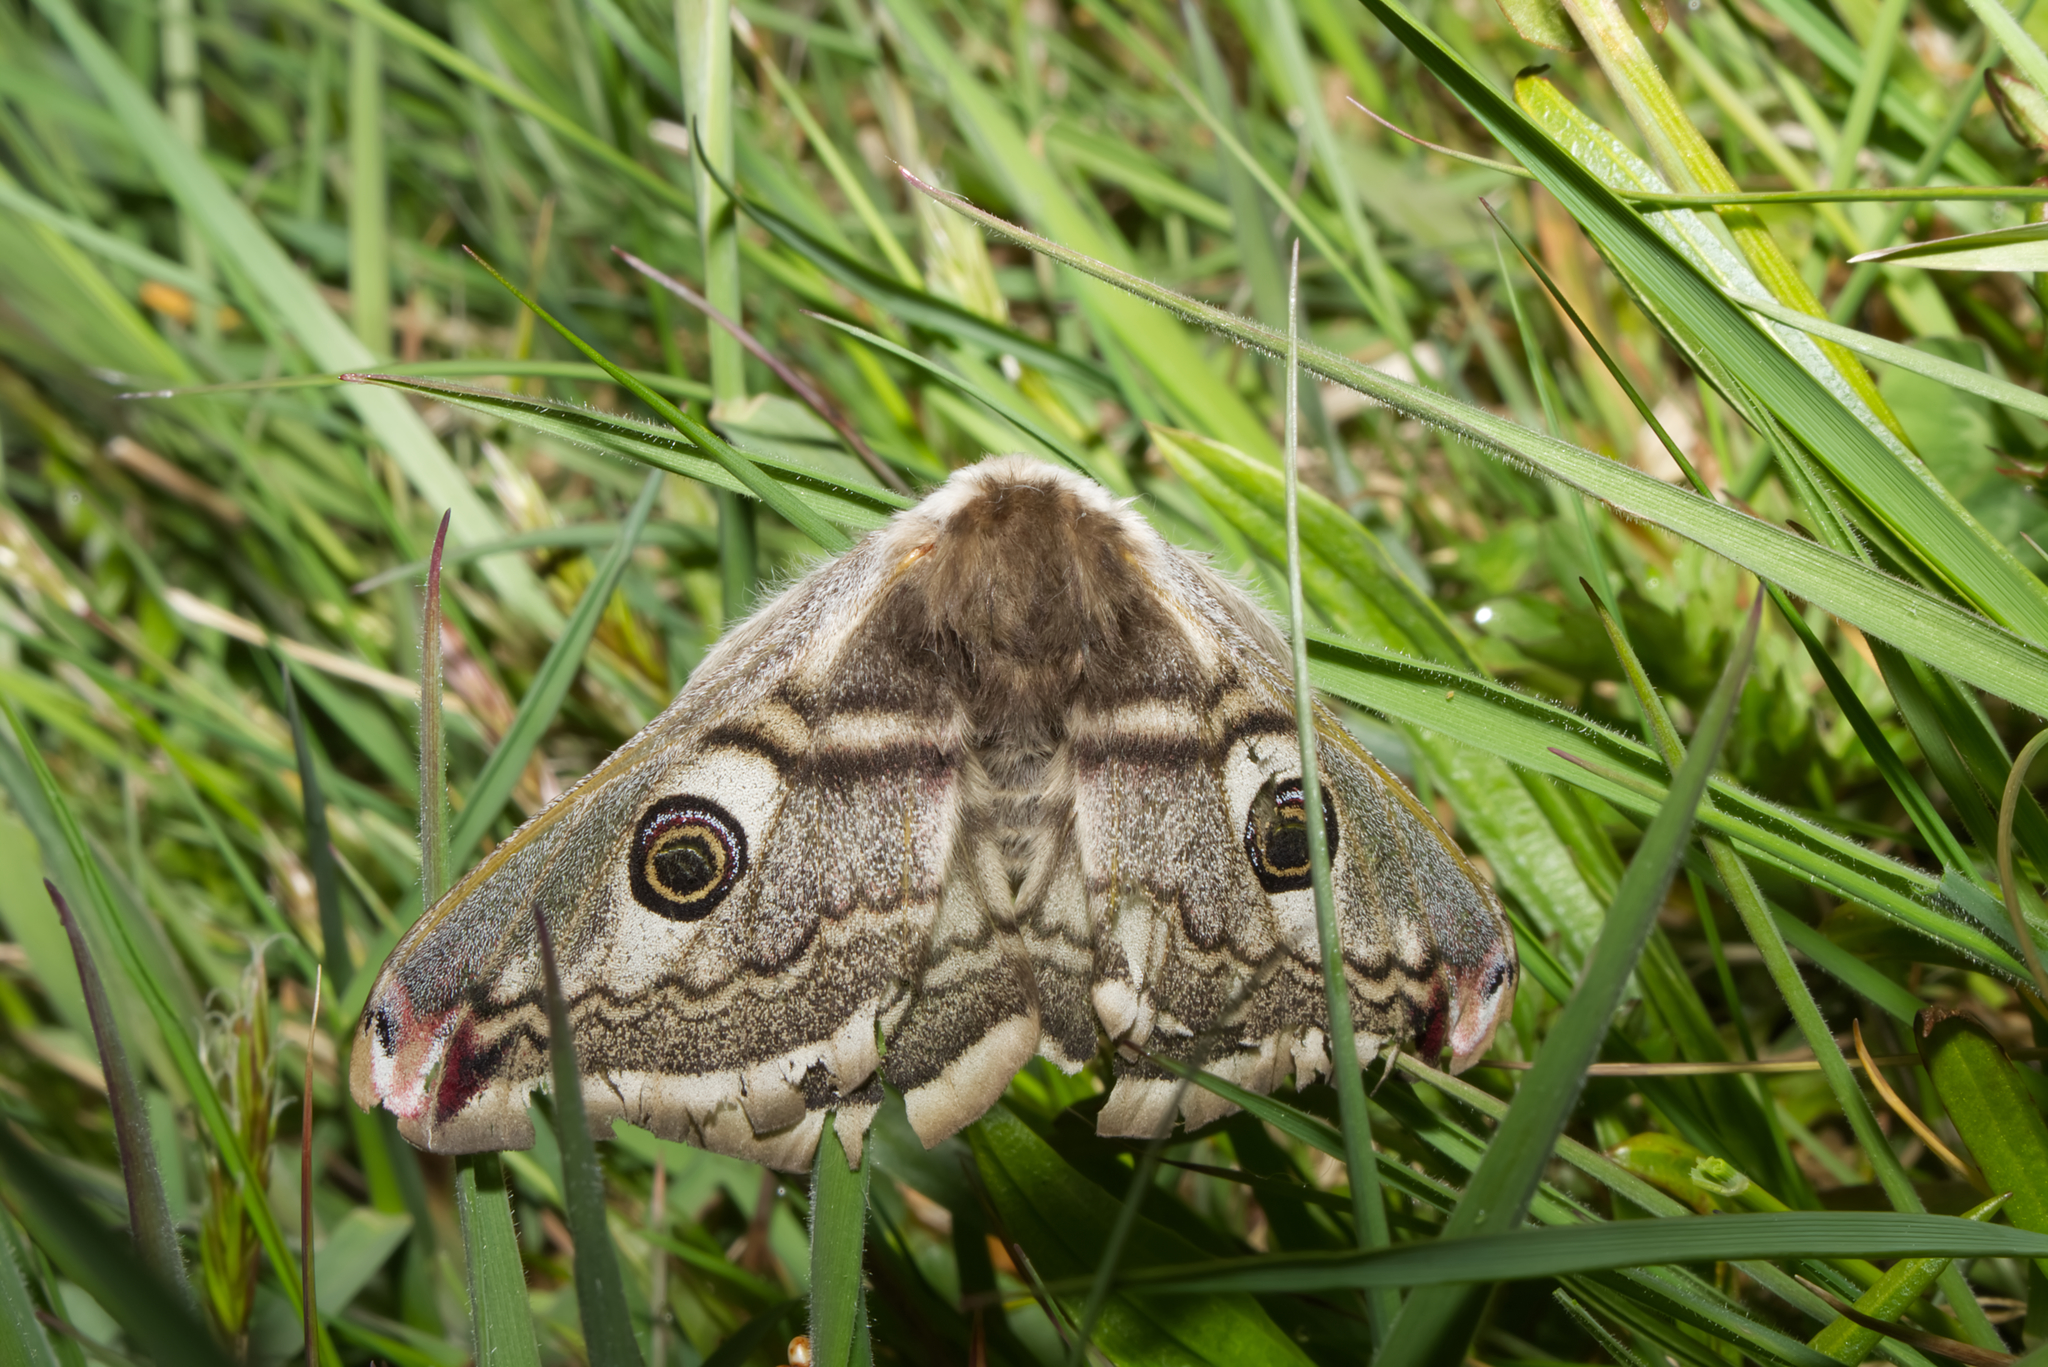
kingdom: Animalia
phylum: Arthropoda
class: Insecta
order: Lepidoptera
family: Saturniidae
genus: Saturnia
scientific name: Saturnia pavonia
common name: Emperor moth
